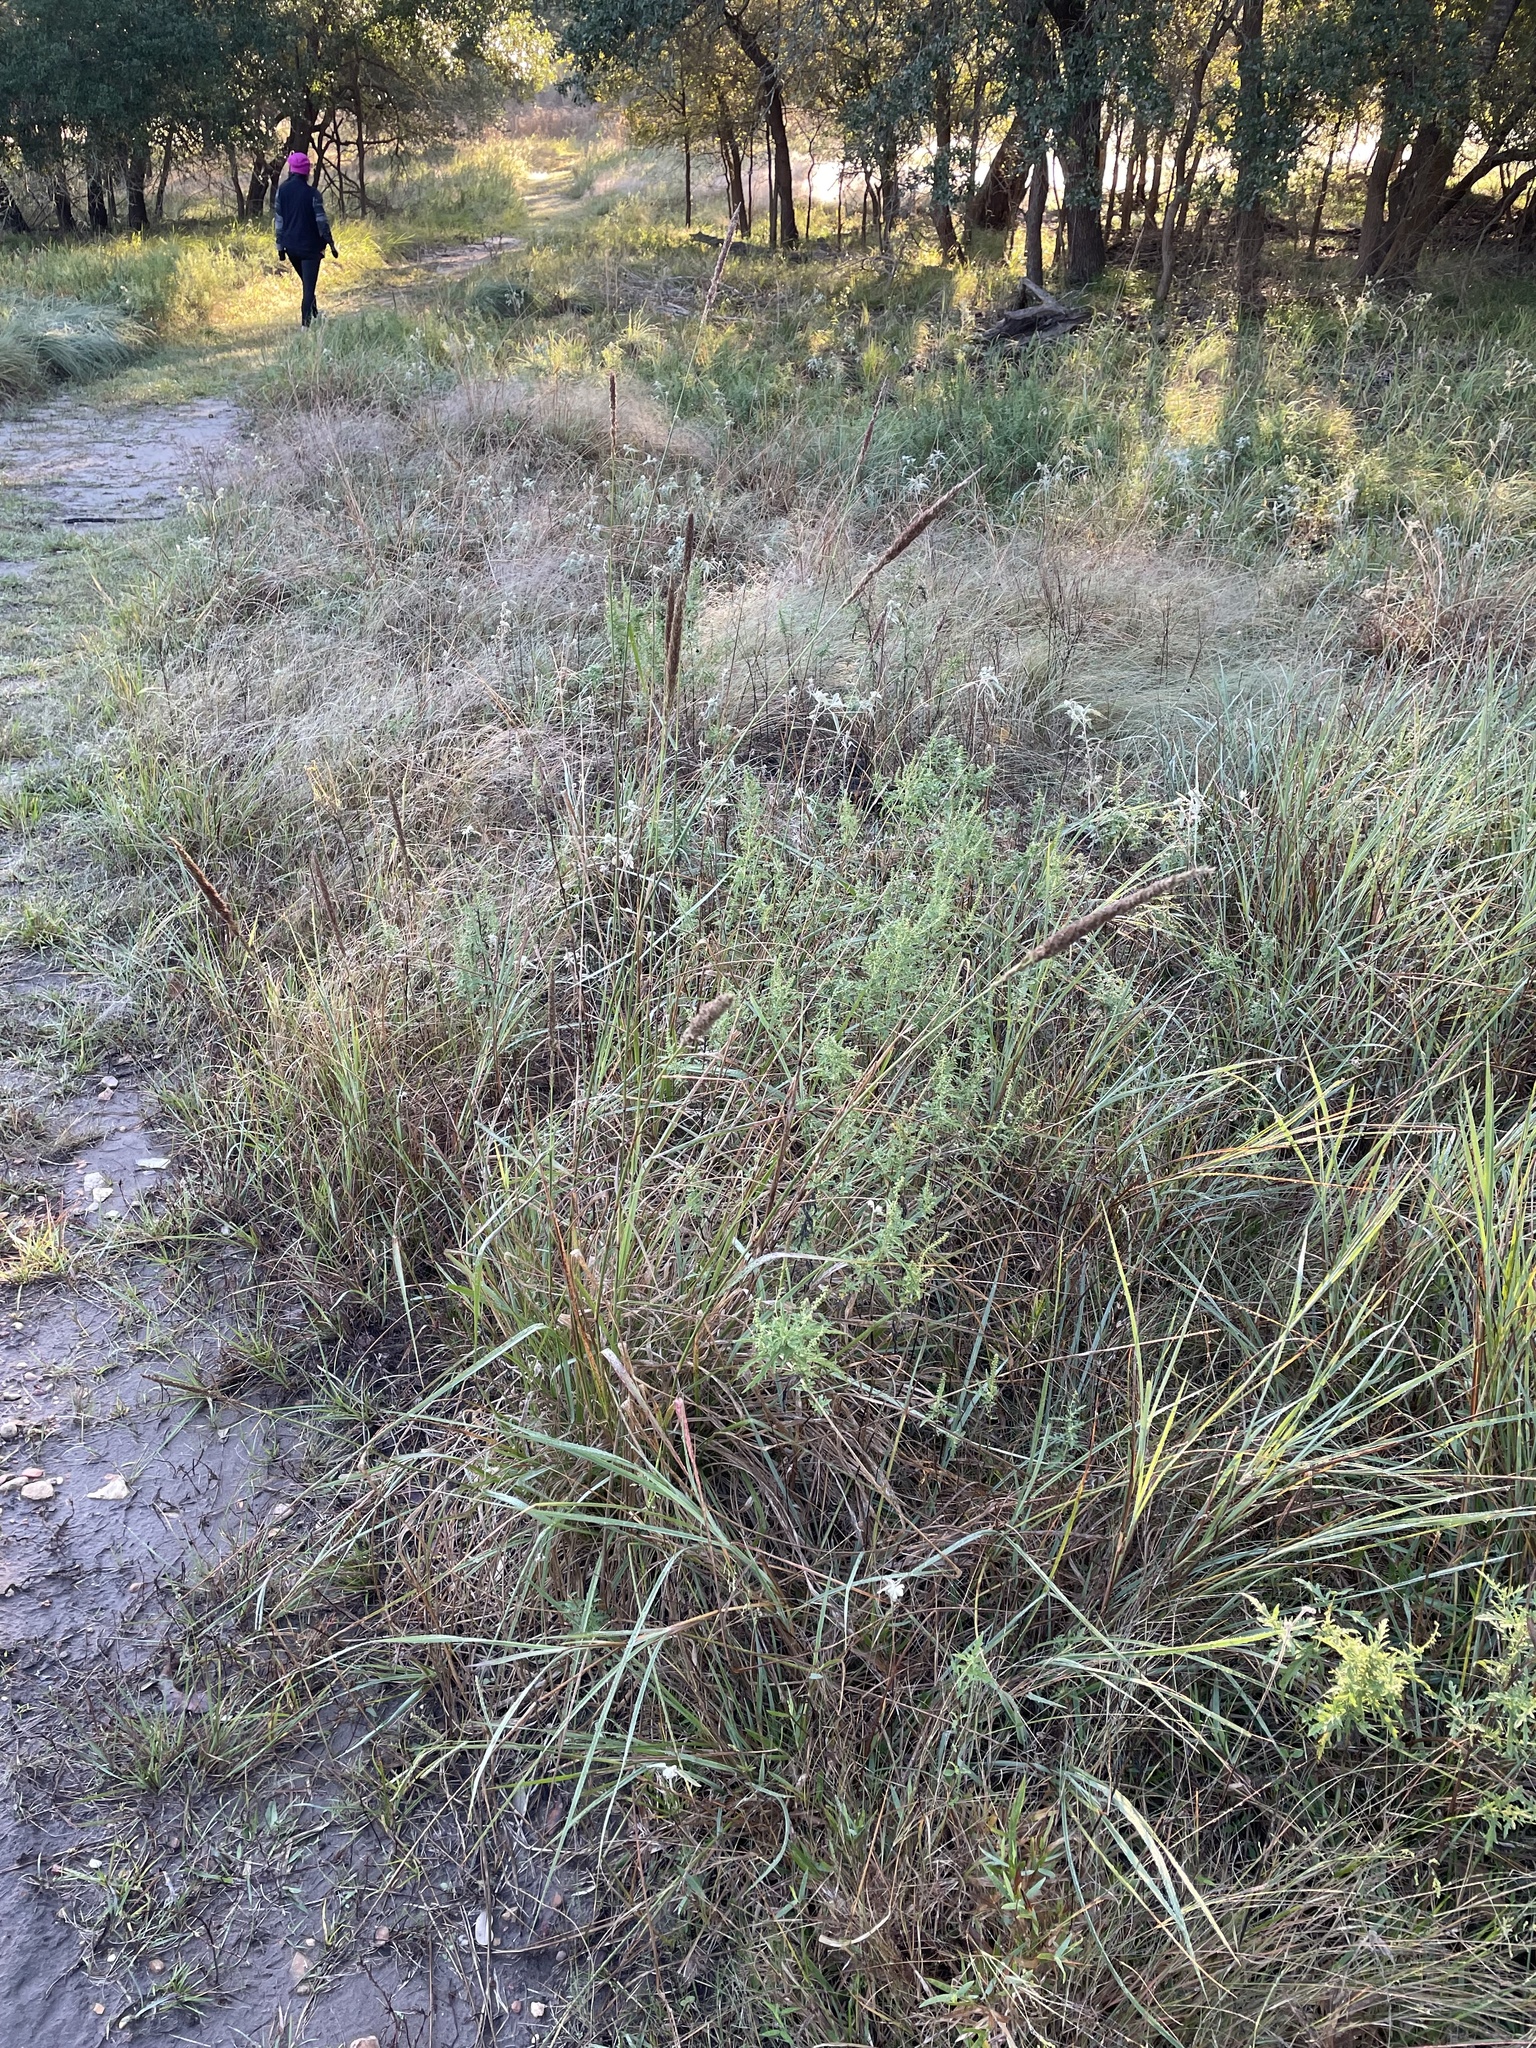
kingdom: Plantae
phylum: Tracheophyta
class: Liliopsida
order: Poales
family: Poaceae
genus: Tridens
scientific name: Tridens strictus
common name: Long-spike tridens
